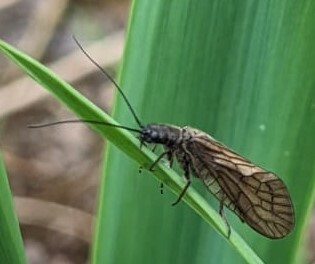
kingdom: Animalia
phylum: Arthropoda
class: Insecta
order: Megaloptera
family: Sialidae
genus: Sialis
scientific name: Sialis
